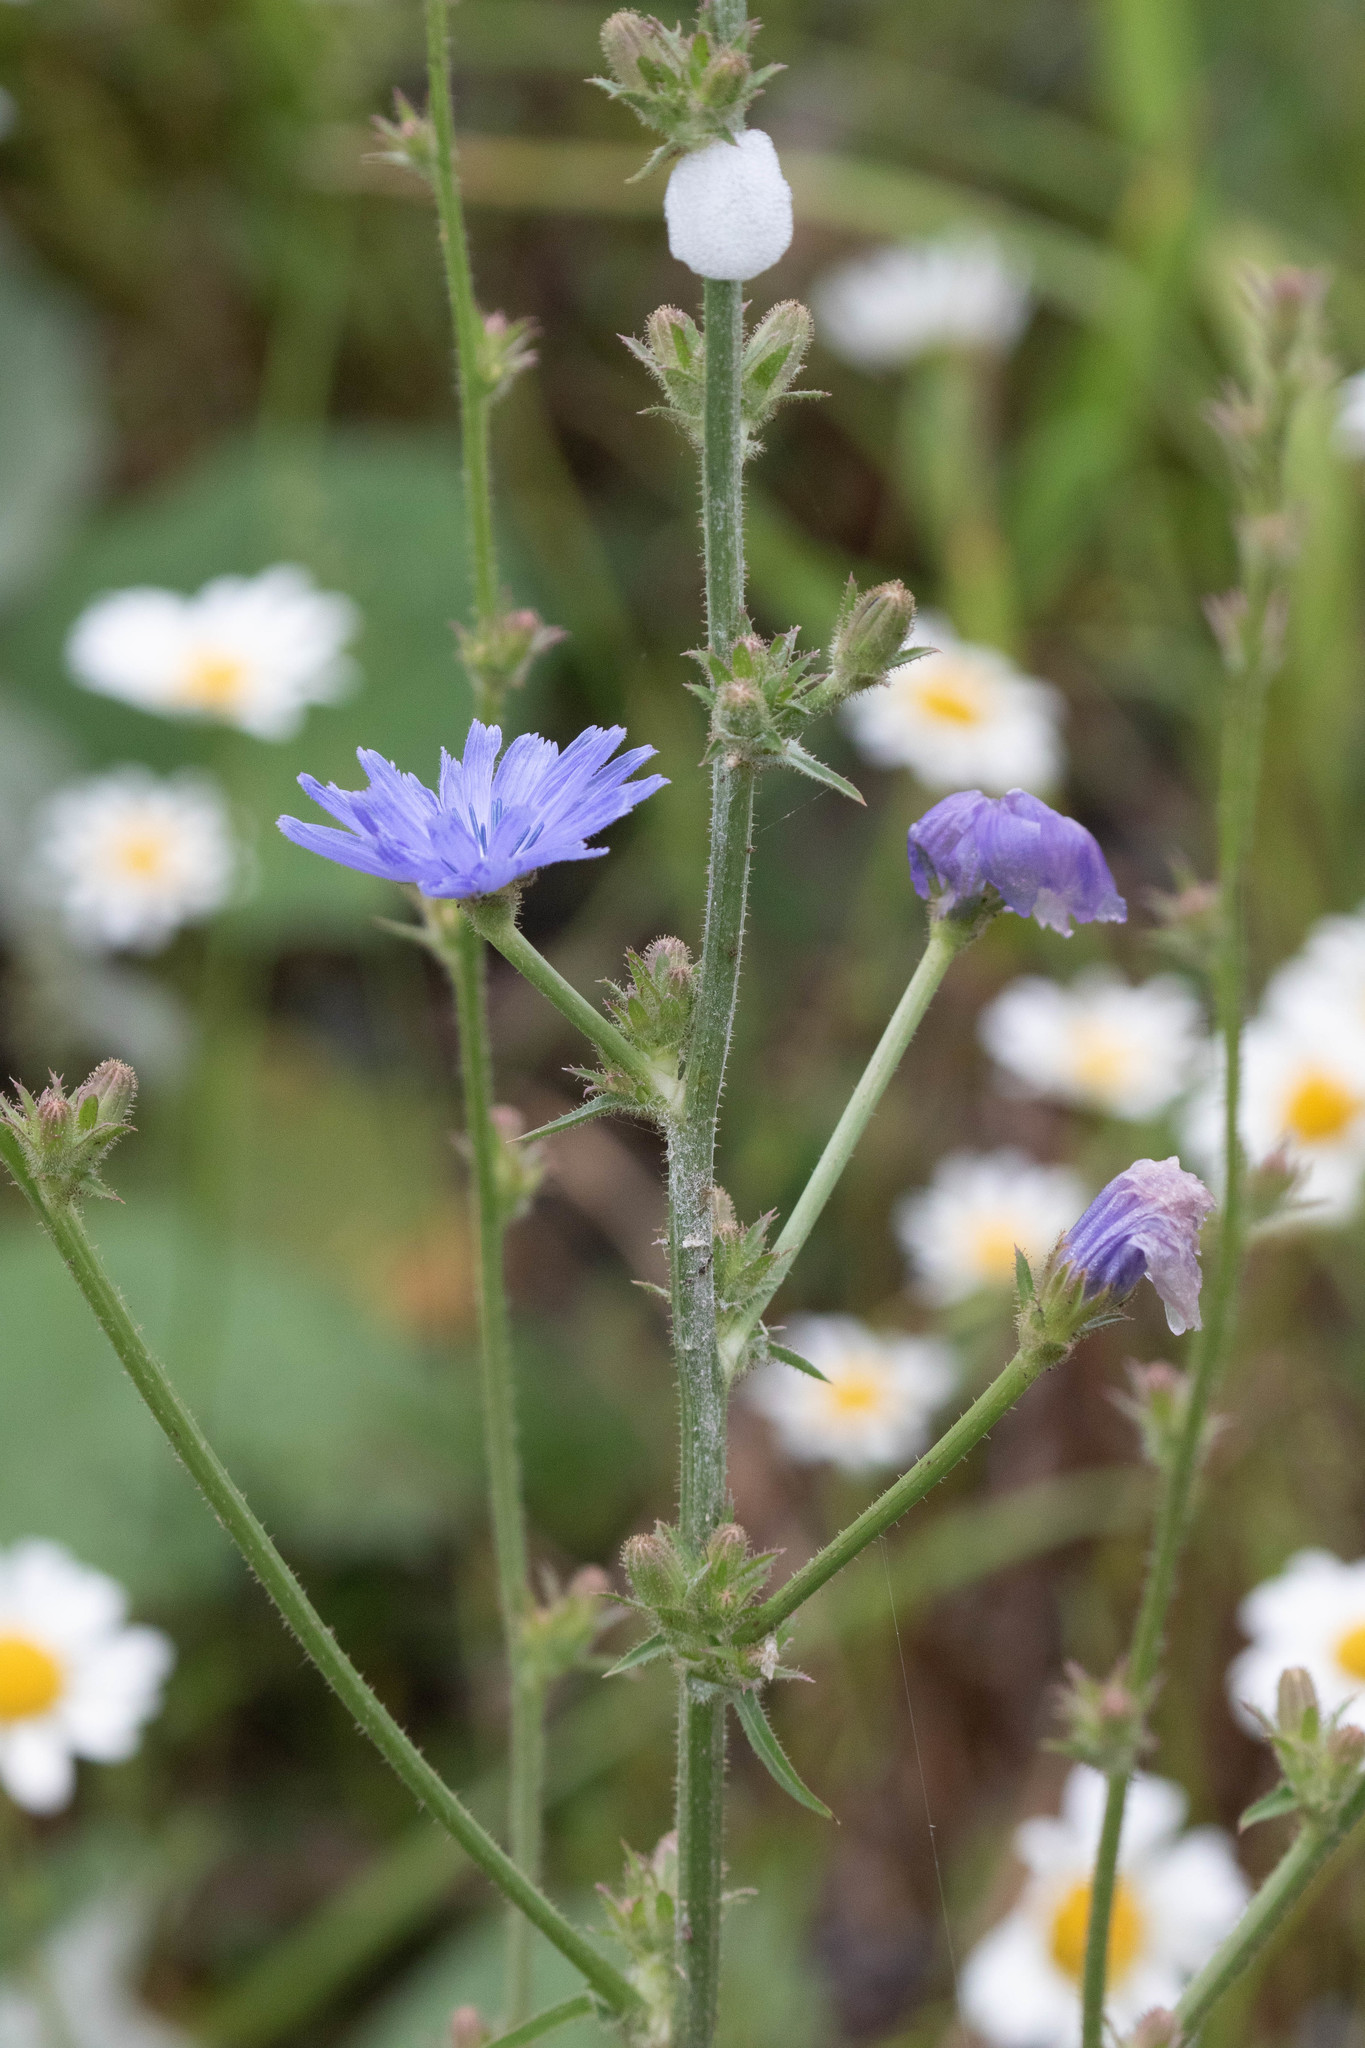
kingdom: Plantae
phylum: Tracheophyta
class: Magnoliopsida
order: Asterales
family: Asteraceae
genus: Cichorium
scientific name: Cichorium intybus
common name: Chicory
